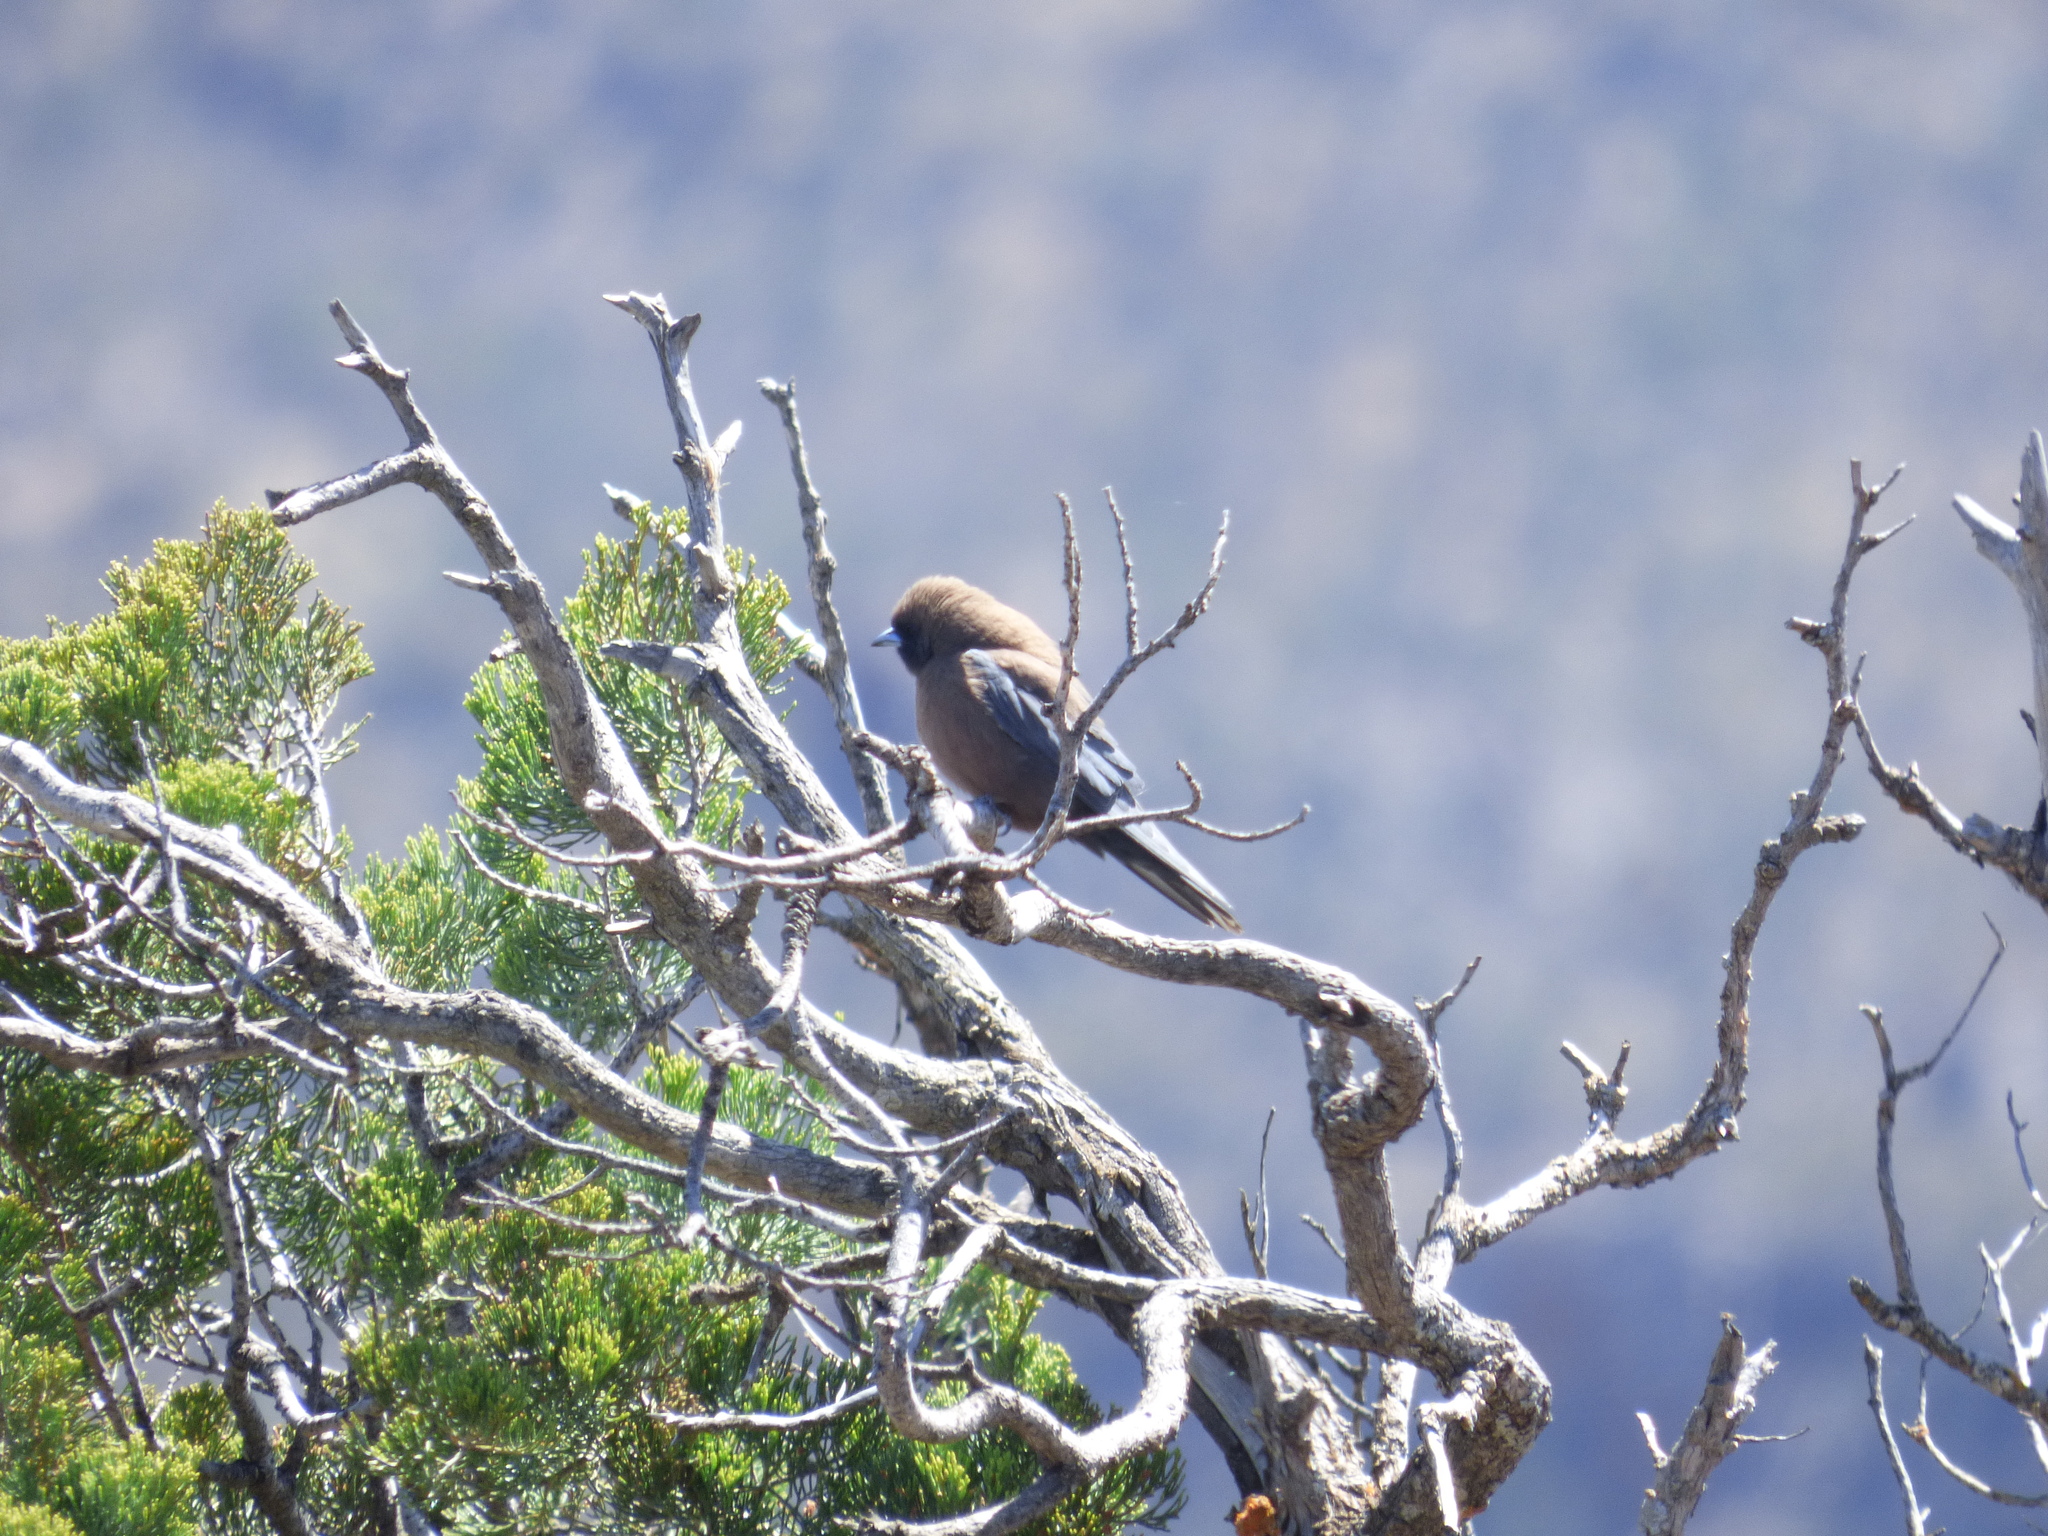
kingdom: Animalia
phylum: Chordata
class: Aves
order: Passeriformes
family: Artamidae
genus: Artamus
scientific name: Artamus minor
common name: Little woodswallow
